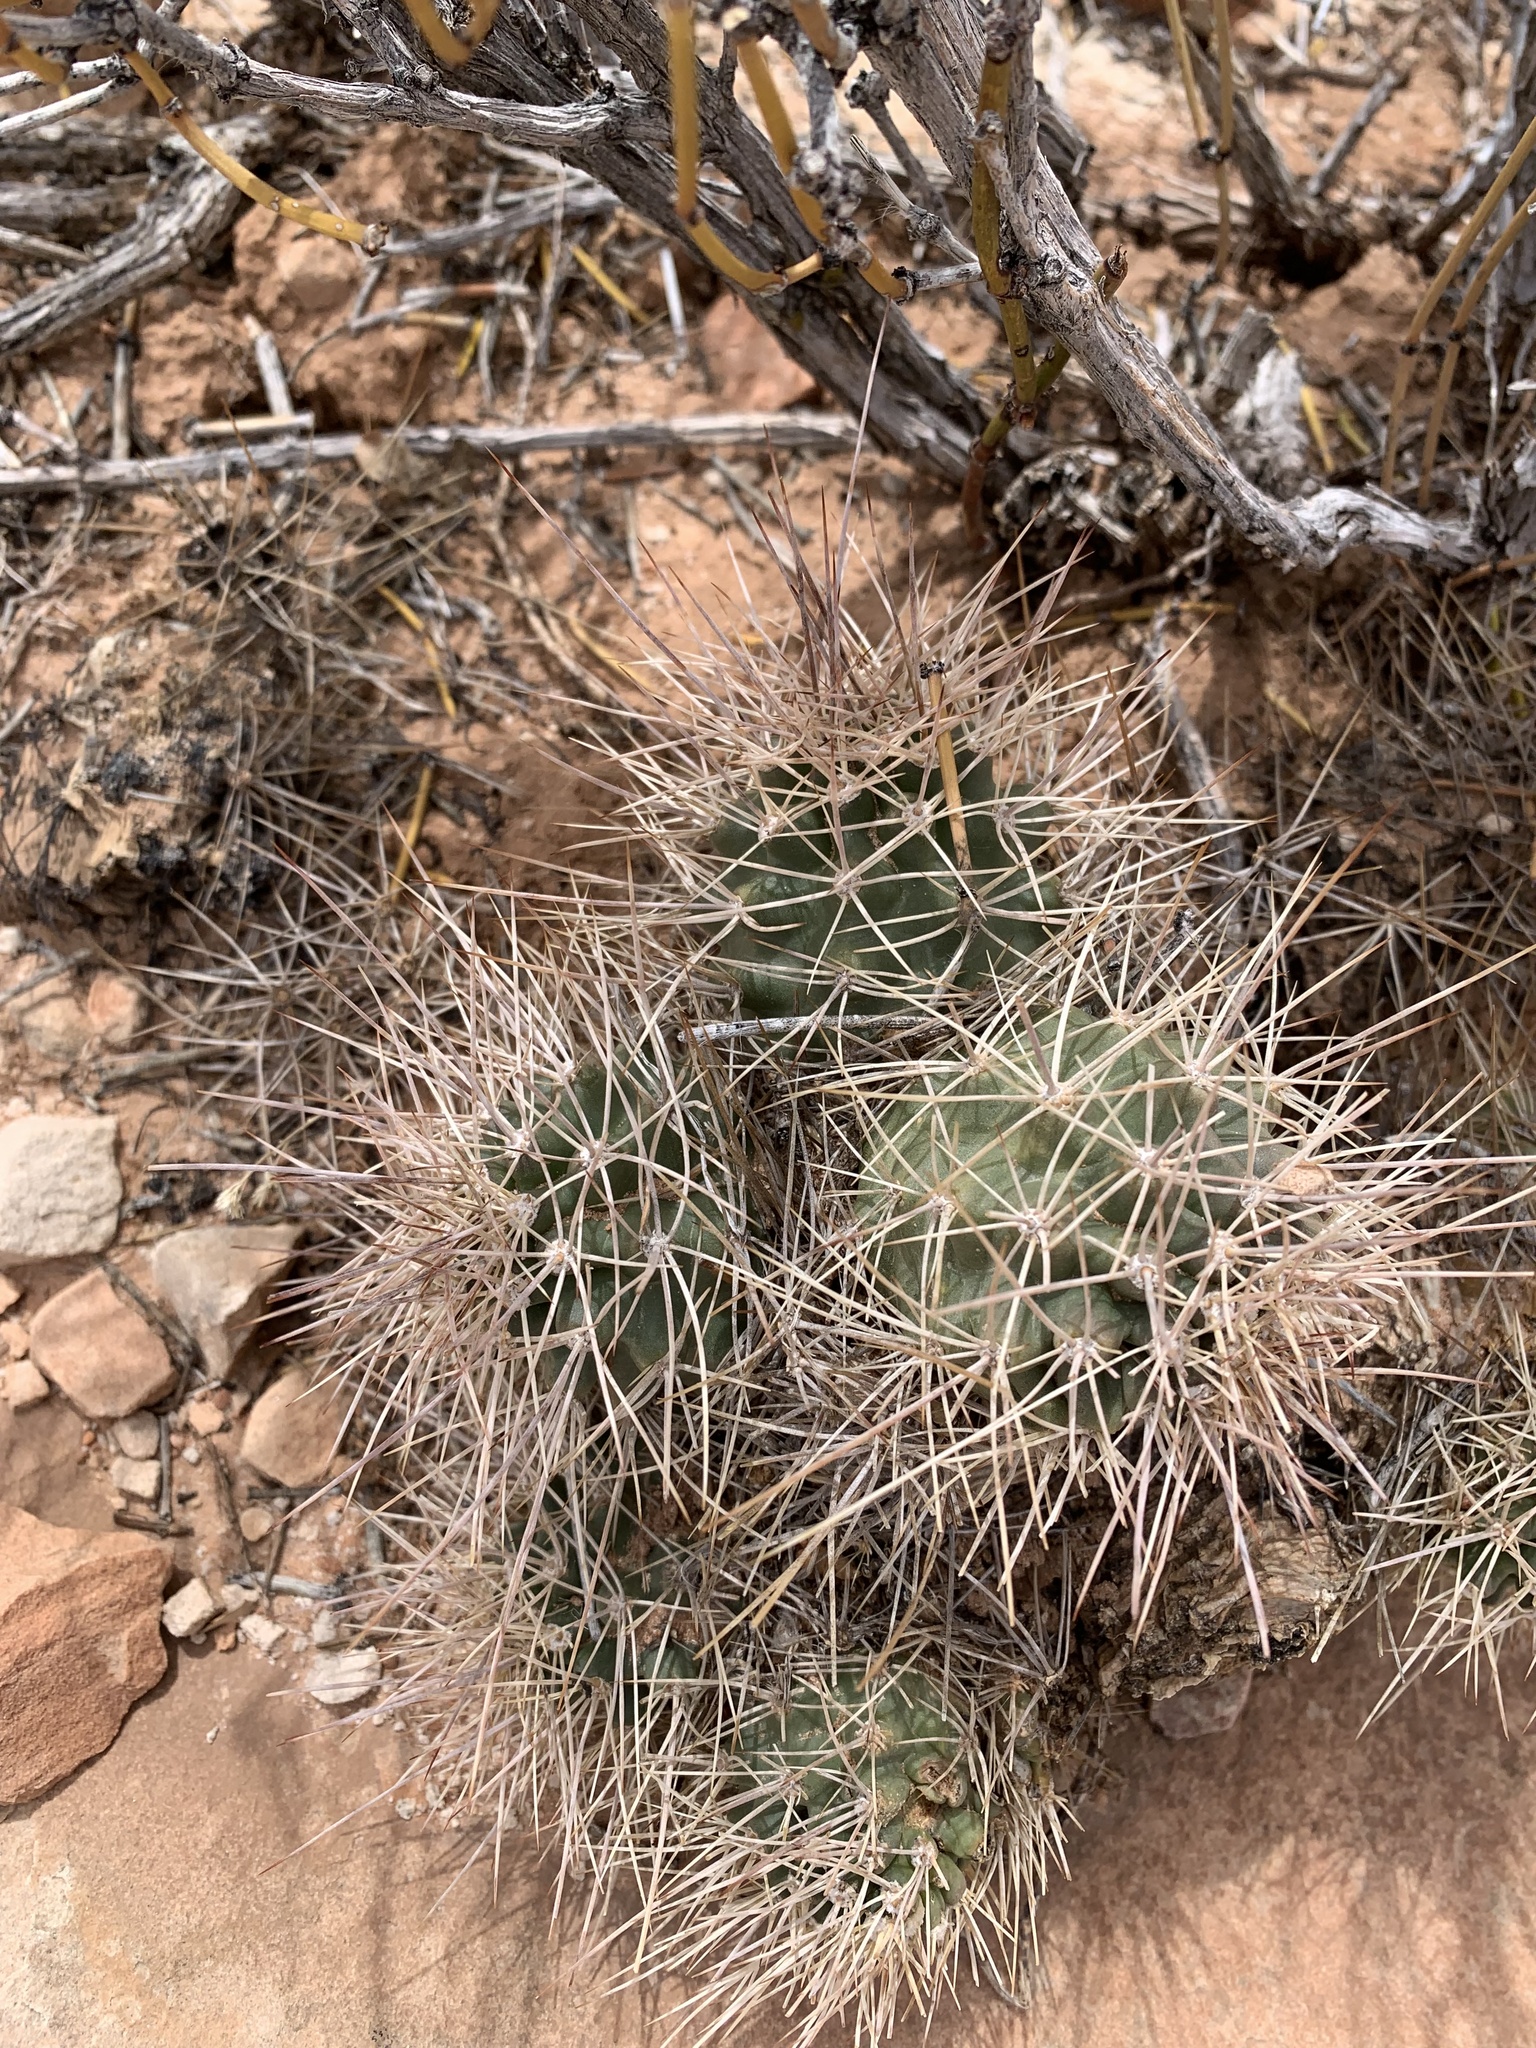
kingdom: Plantae
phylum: Tracheophyta
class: Magnoliopsida
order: Caryophyllales
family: Cactaceae
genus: Echinocereus
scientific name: Echinocereus triglochidiatus
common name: Claretcup hedgehog
